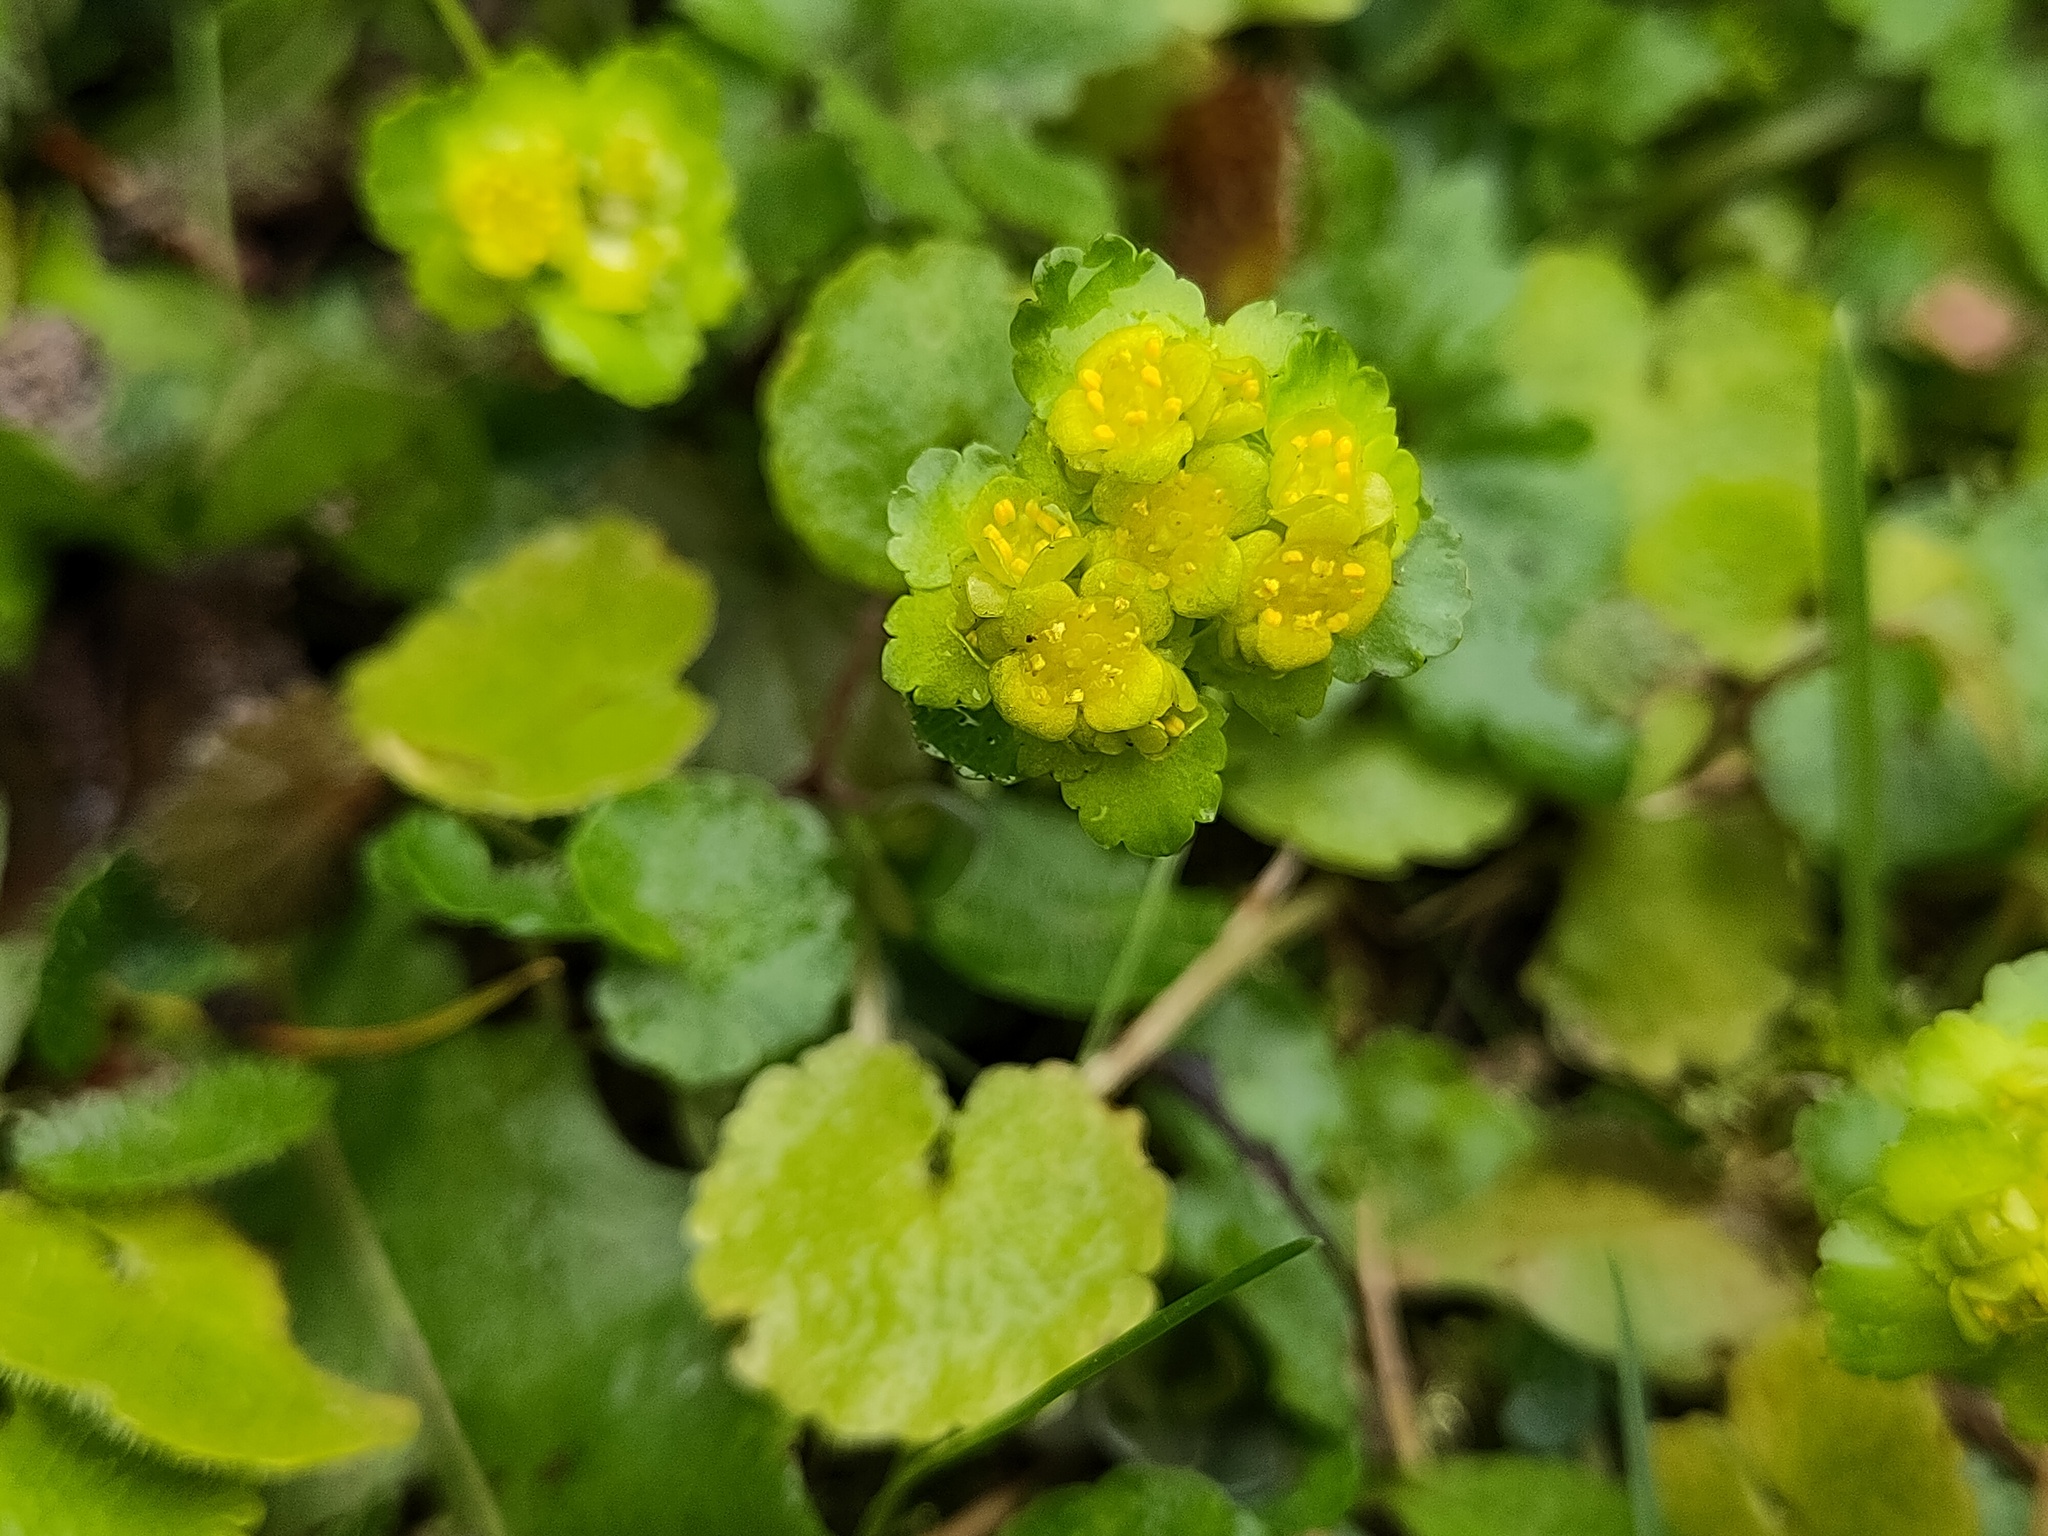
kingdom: Plantae
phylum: Tracheophyta
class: Magnoliopsida
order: Saxifragales
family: Saxifragaceae
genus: Chrysosplenium
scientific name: Chrysosplenium alternifolium
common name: Alternate-leaved golden-saxifrage
